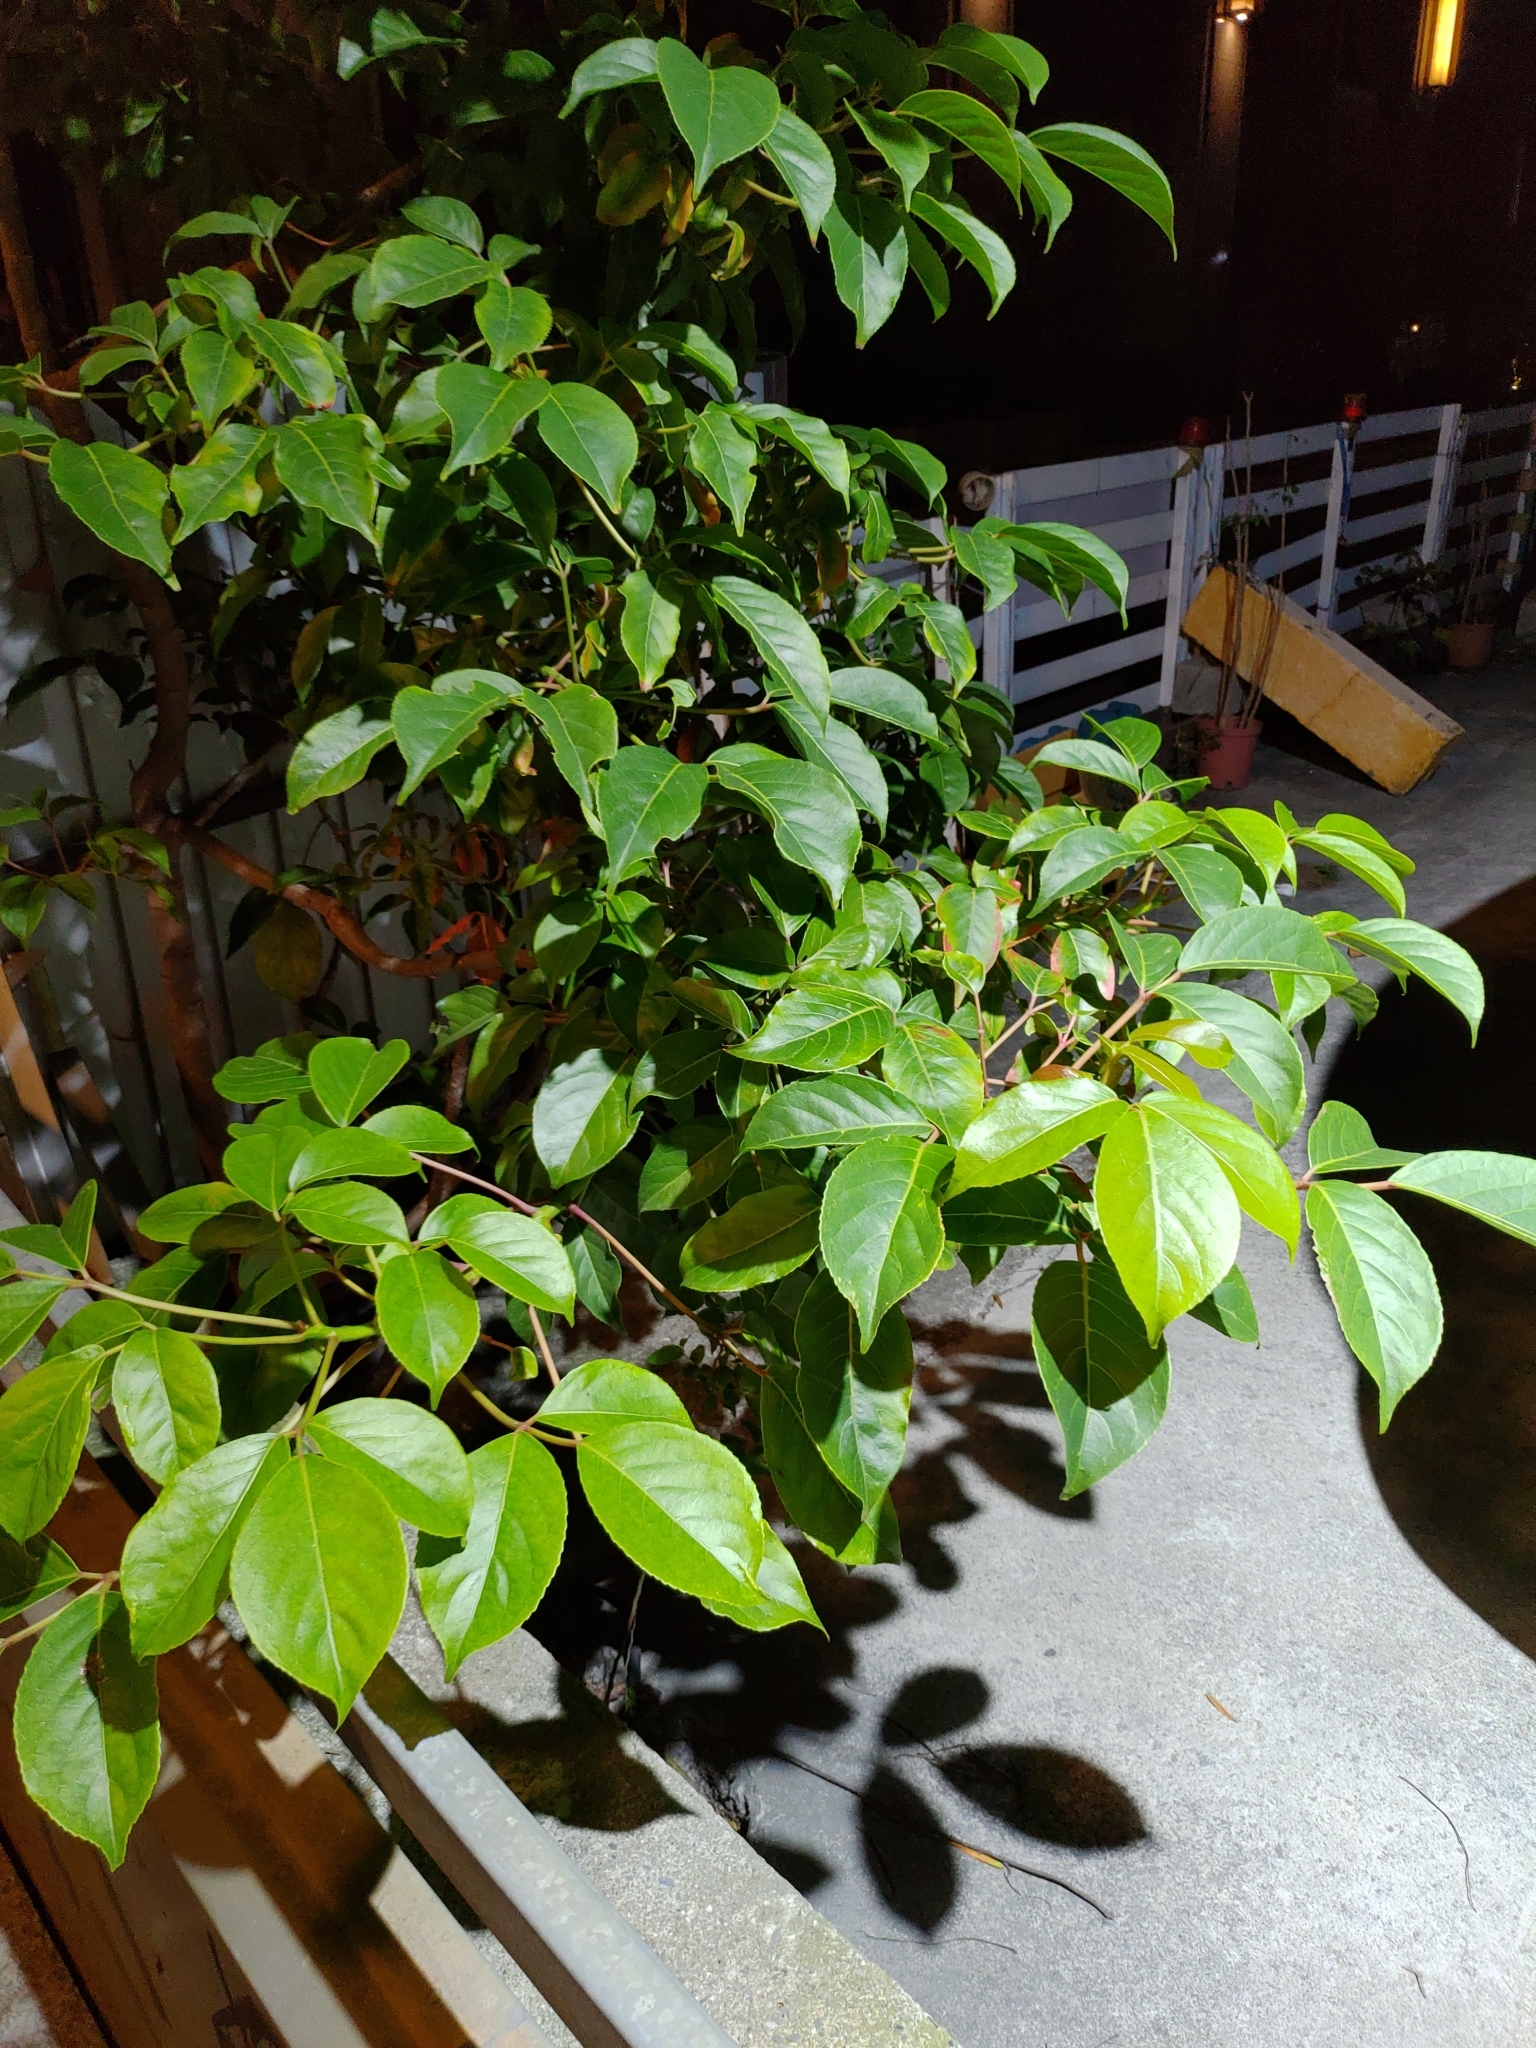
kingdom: Plantae
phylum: Tracheophyta
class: Magnoliopsida
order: Malpighiales
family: Phyllanthaceae
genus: Bischofia
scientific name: Bischofia javanica
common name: Javanese bishopwood
